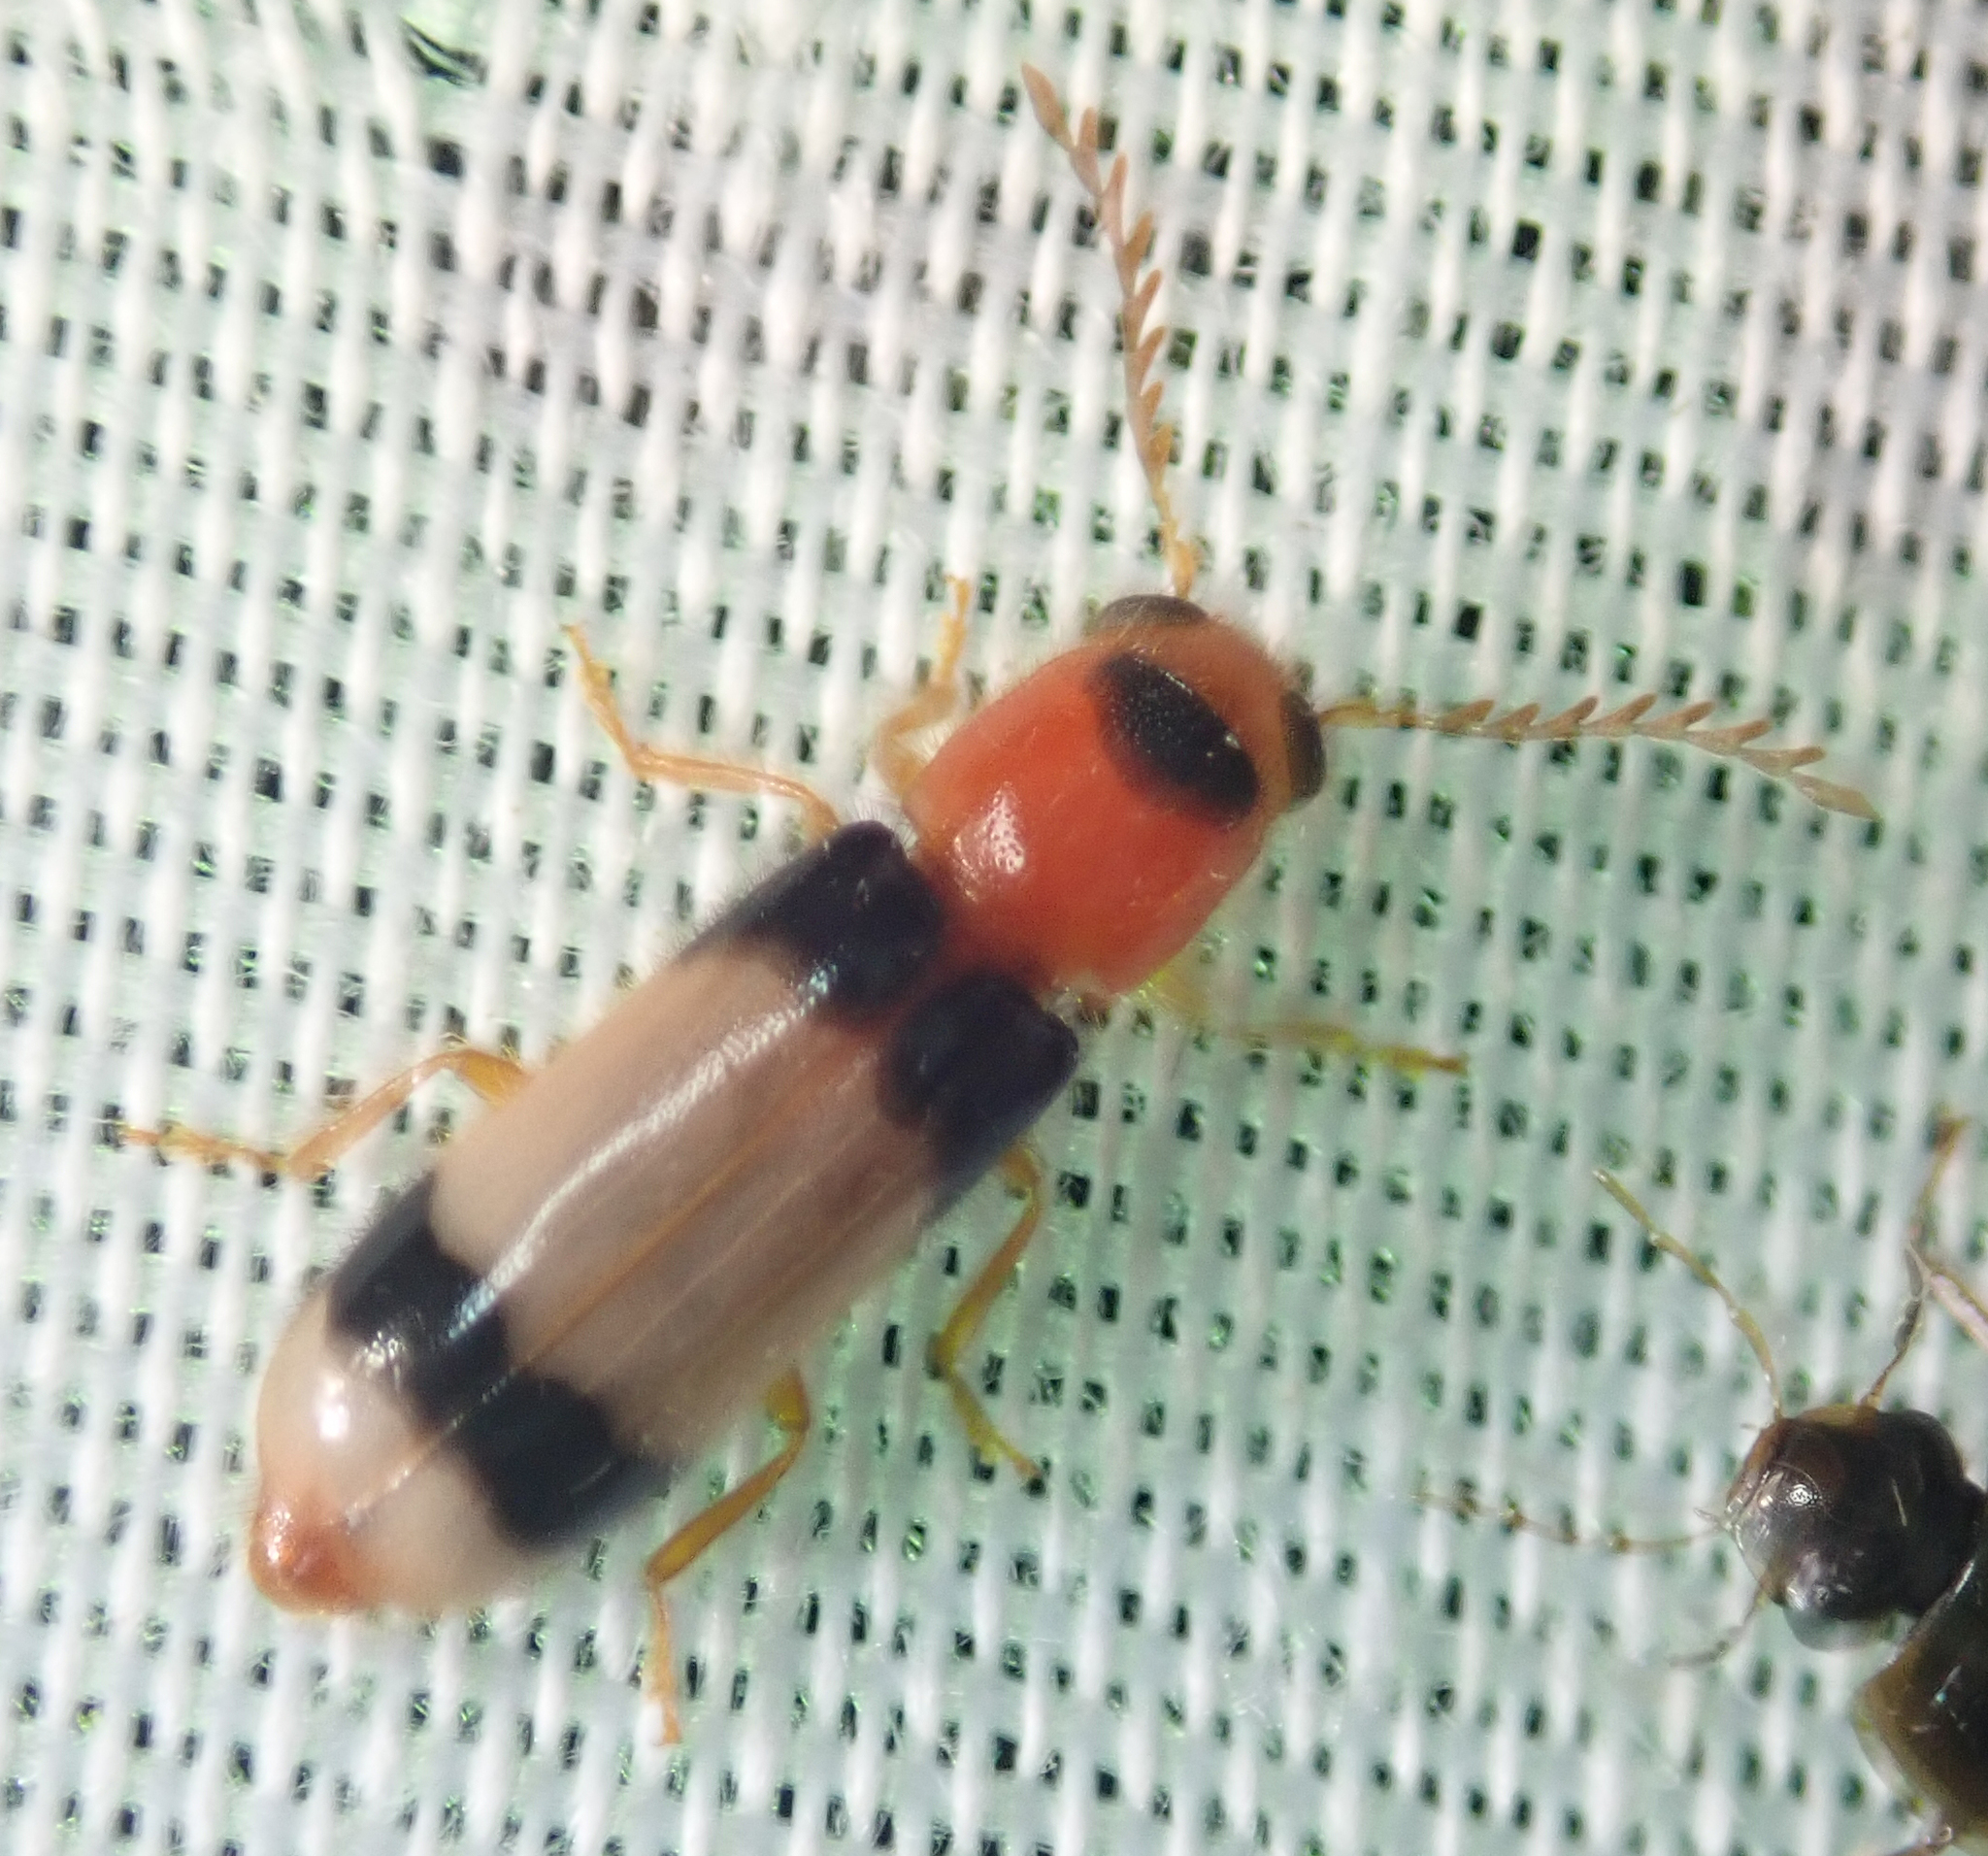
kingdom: Animalia
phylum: Arthropoda
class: Insecta
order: Coleoptera
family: Cleridae
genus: Tenerus
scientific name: Tenerus
